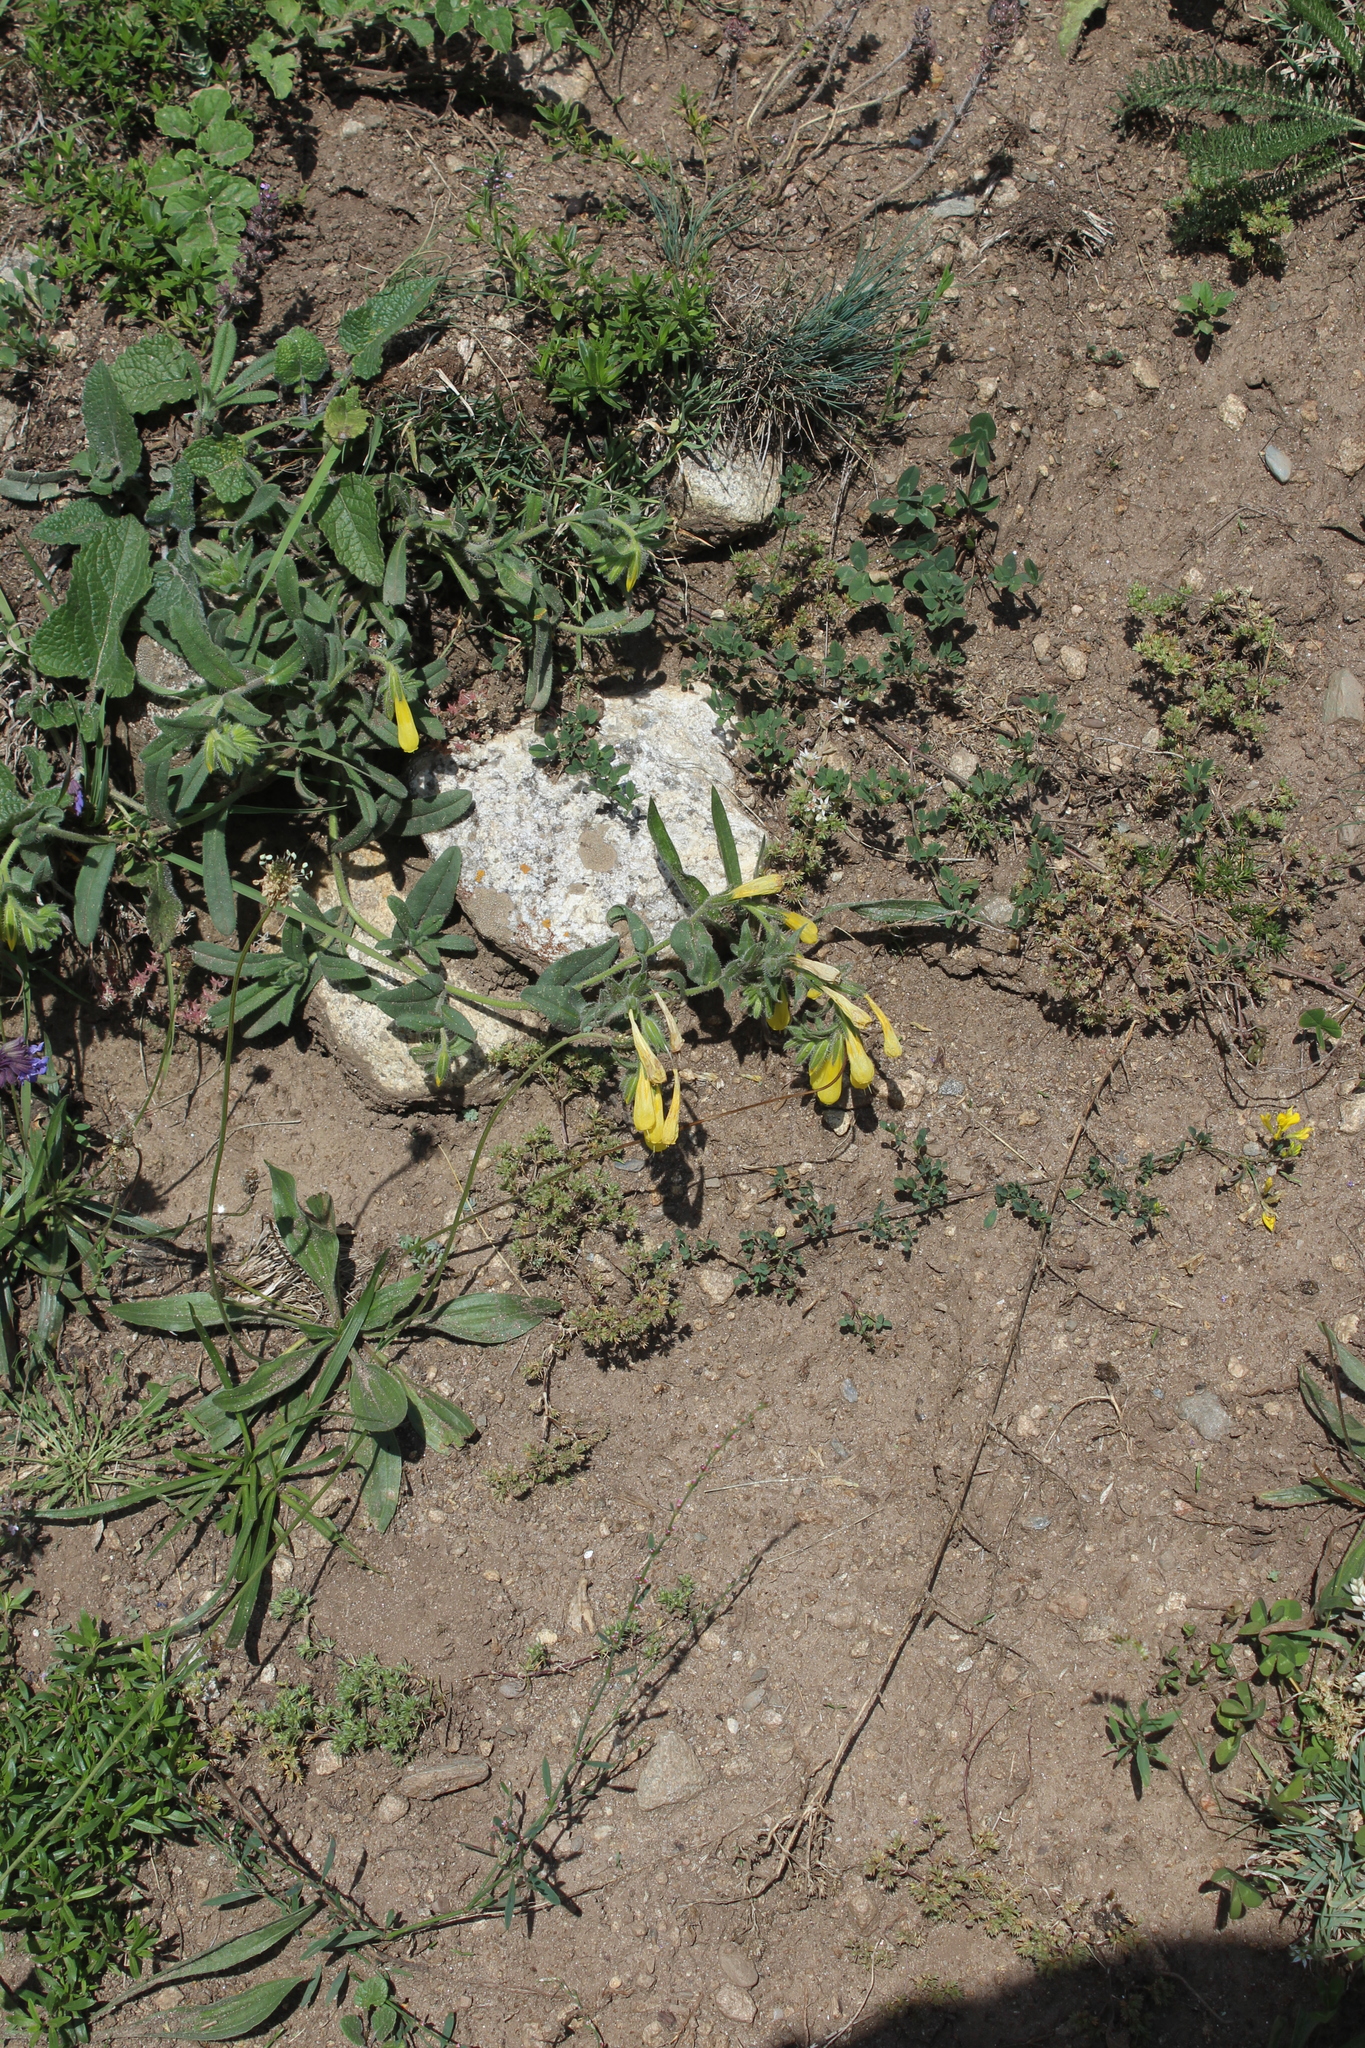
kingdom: Plantae
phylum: Tracheophyta
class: Magnoliopsida
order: Boraginales
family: Boraginaceae
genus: Onosma
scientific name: Onosma caucasica
